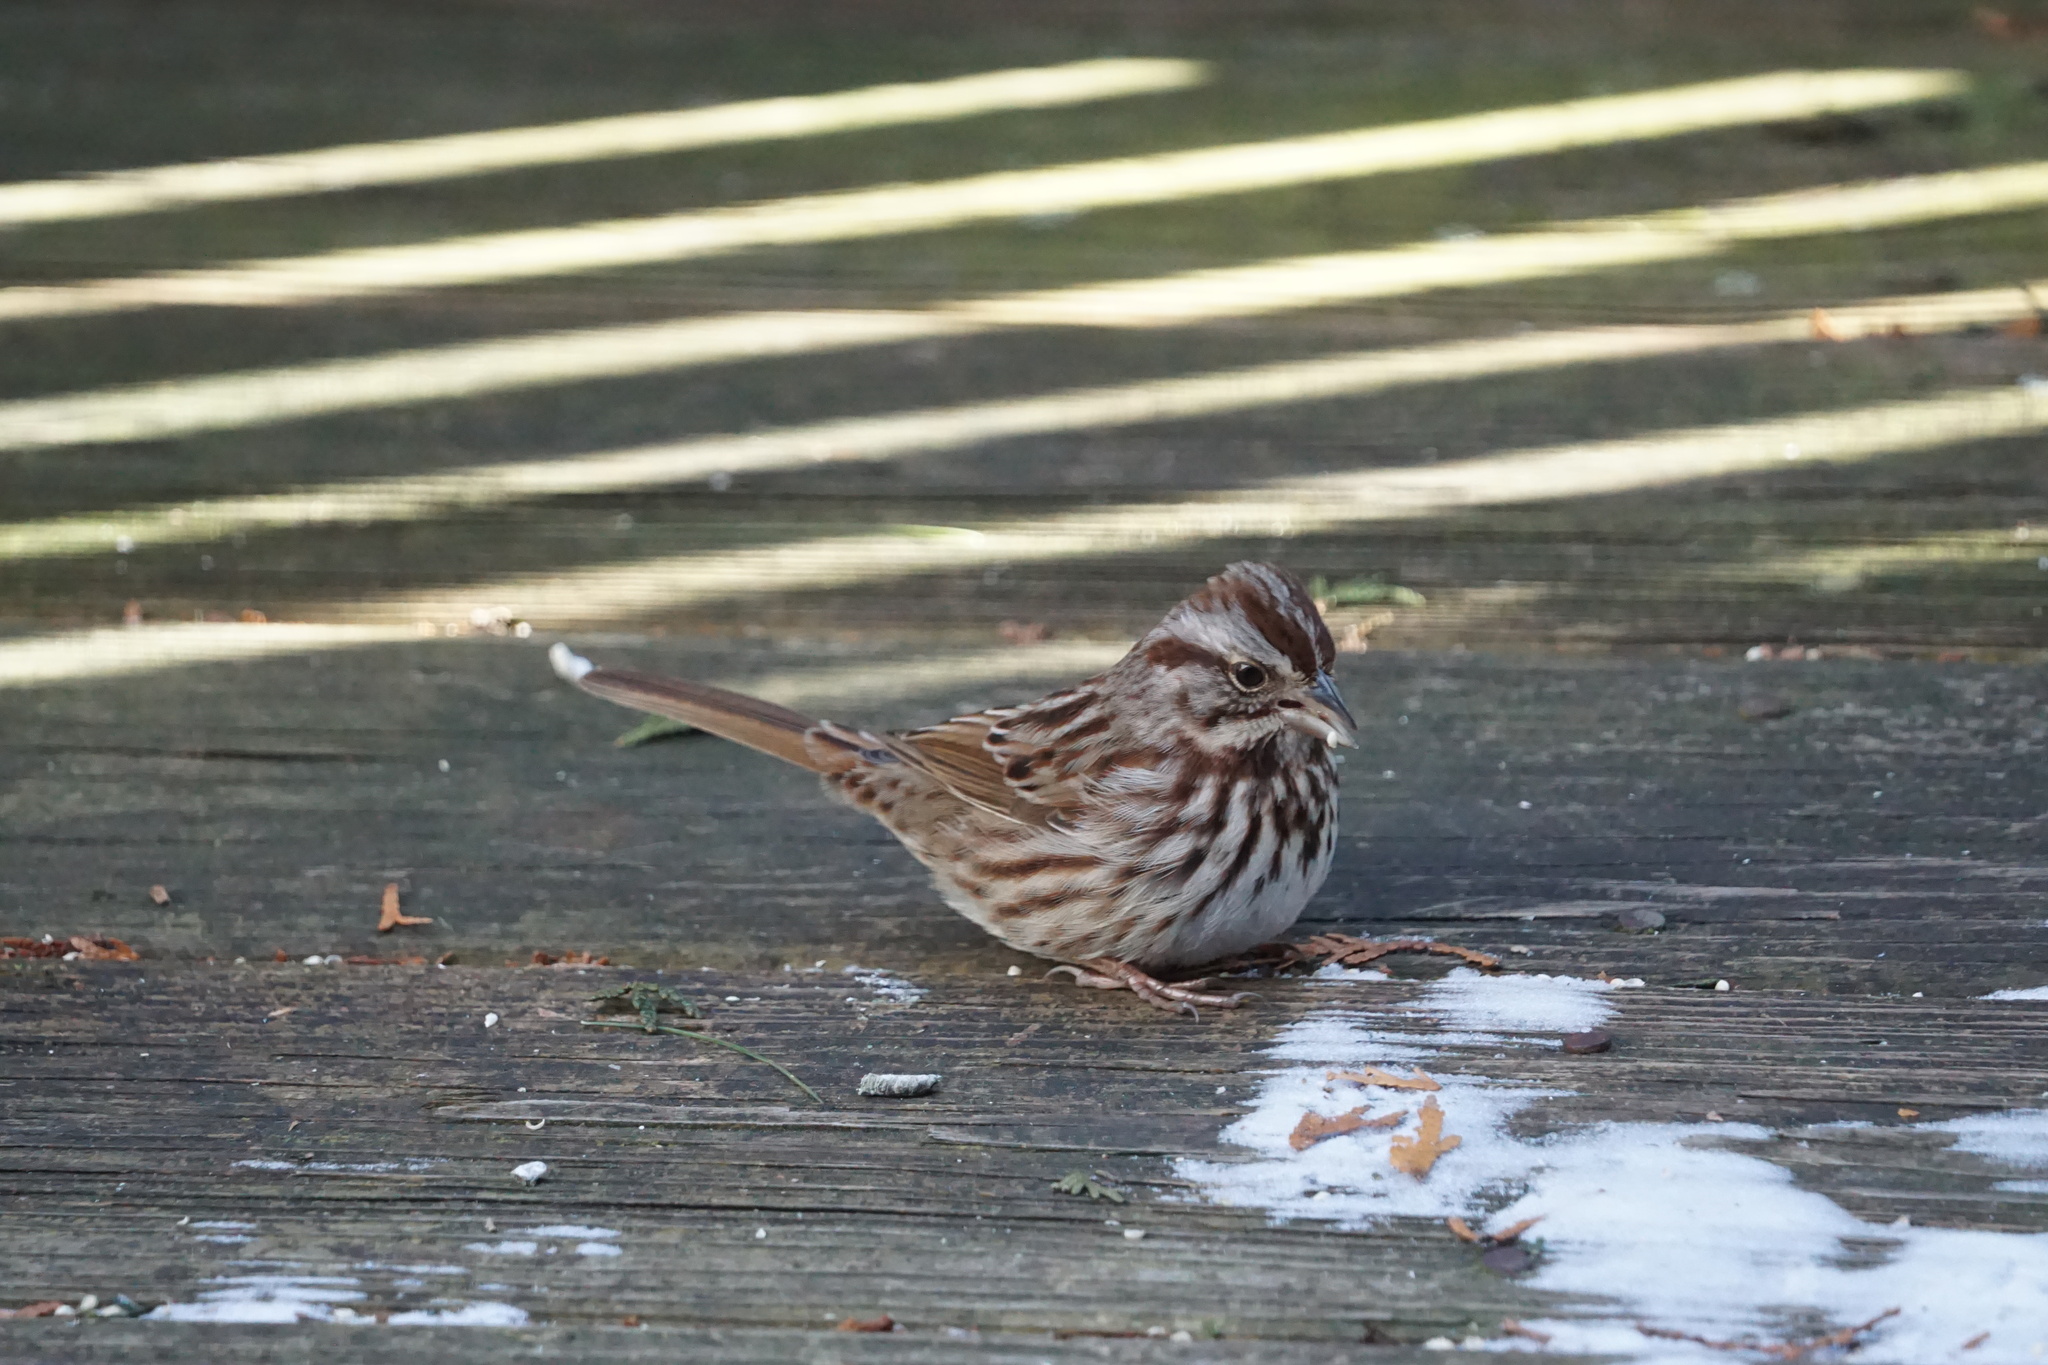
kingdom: Animalia
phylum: Chordata
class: Aves
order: Passeriformes
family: Passerellidae
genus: Melospiza
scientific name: Melospiza melodia
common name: Song sparrow
